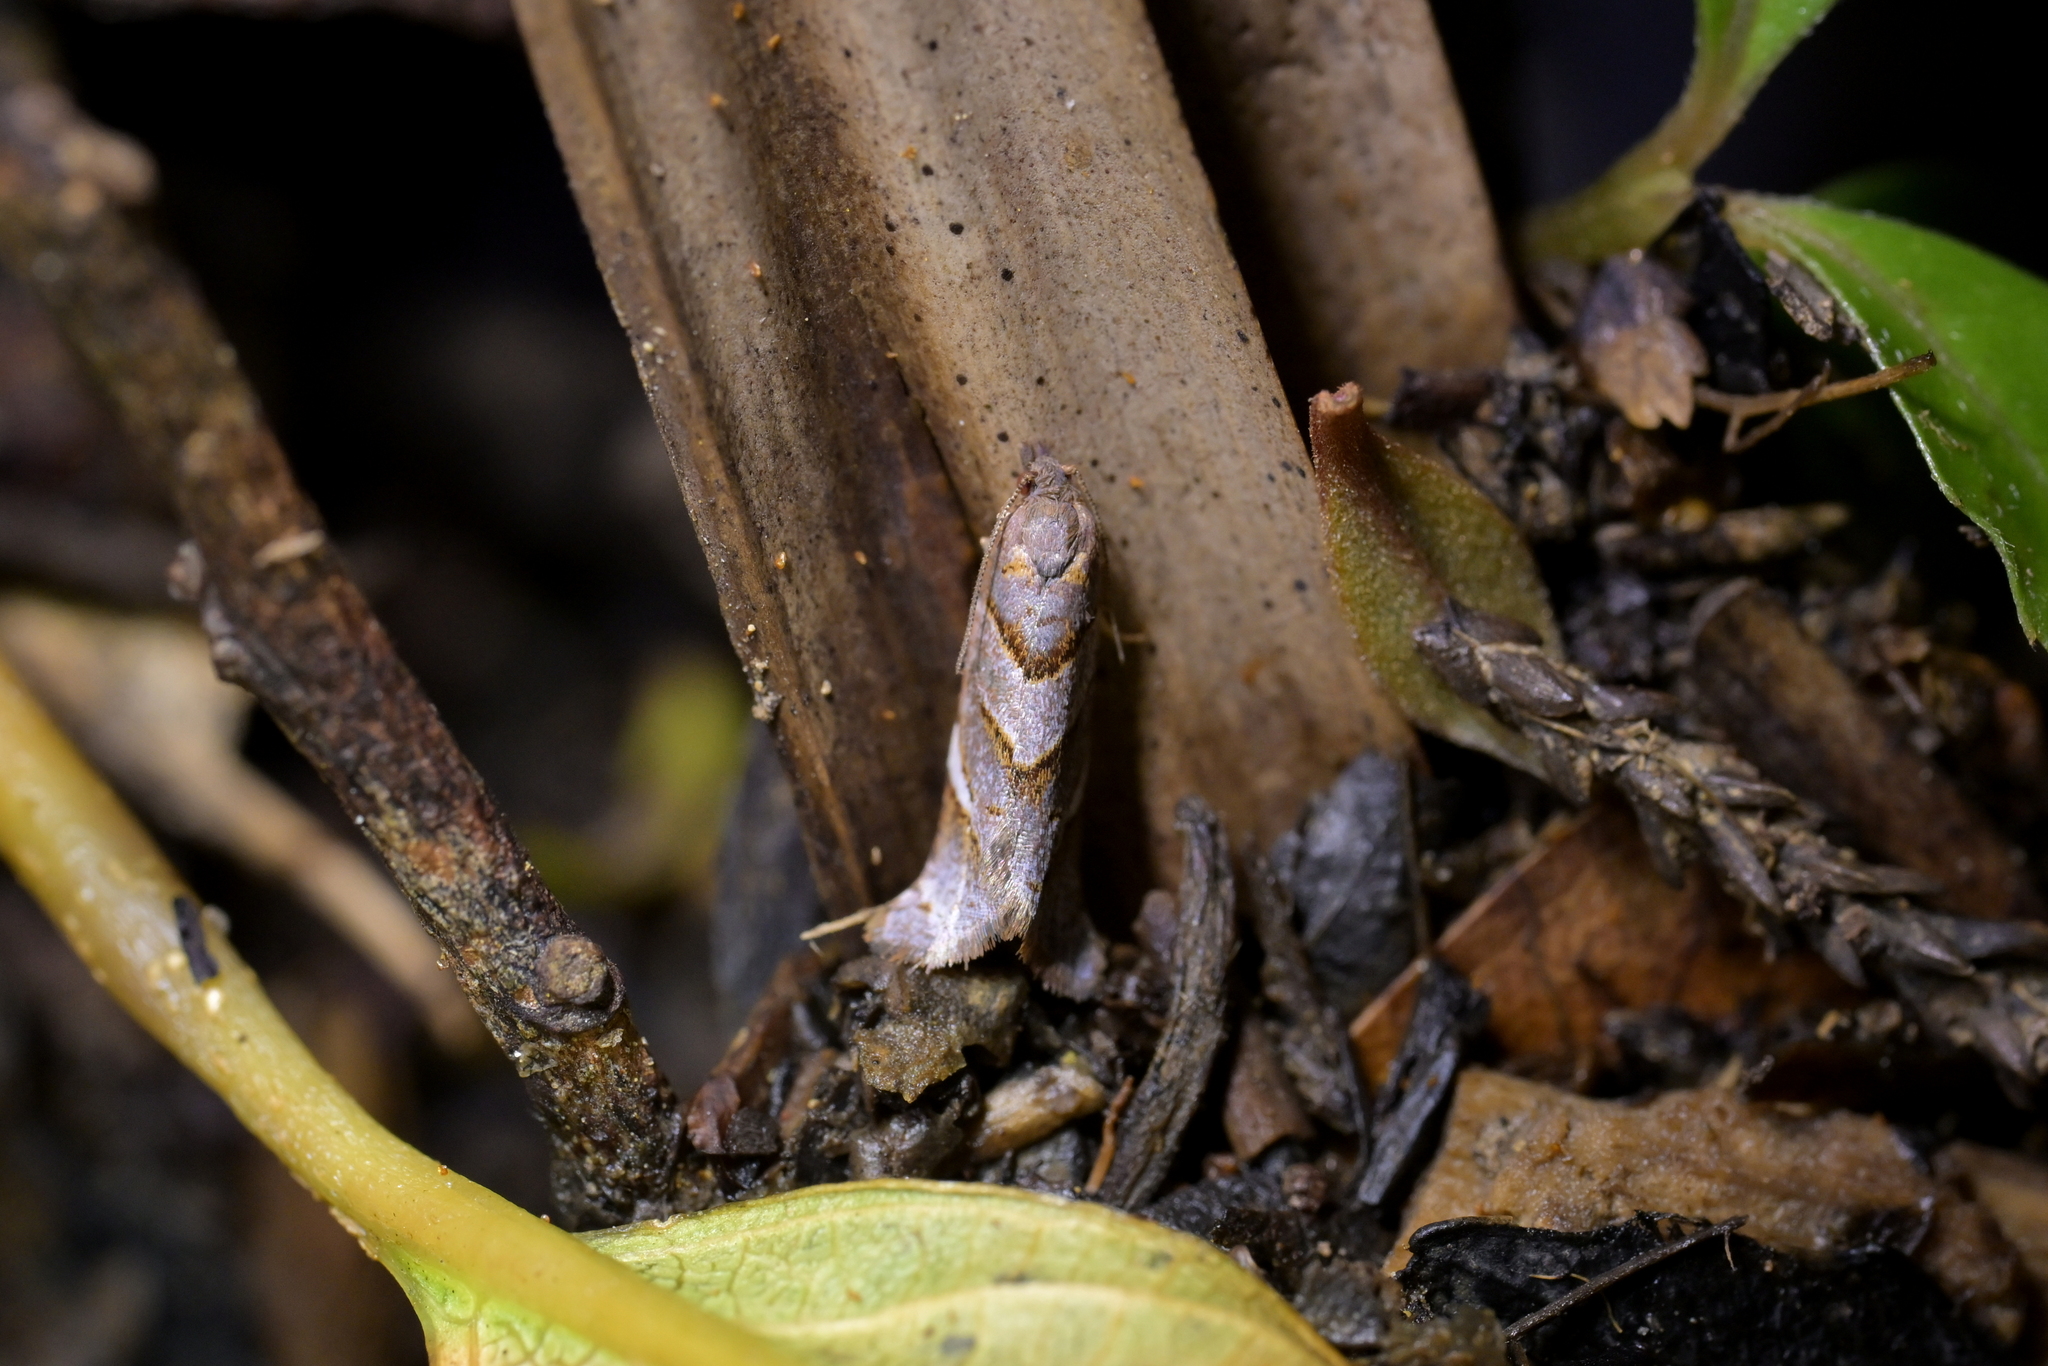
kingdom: Animalia
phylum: Arthropoda
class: Insecta
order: Lepidoptera
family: Tortricidae
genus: Ecclitica
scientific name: Ecclitica torogramma
